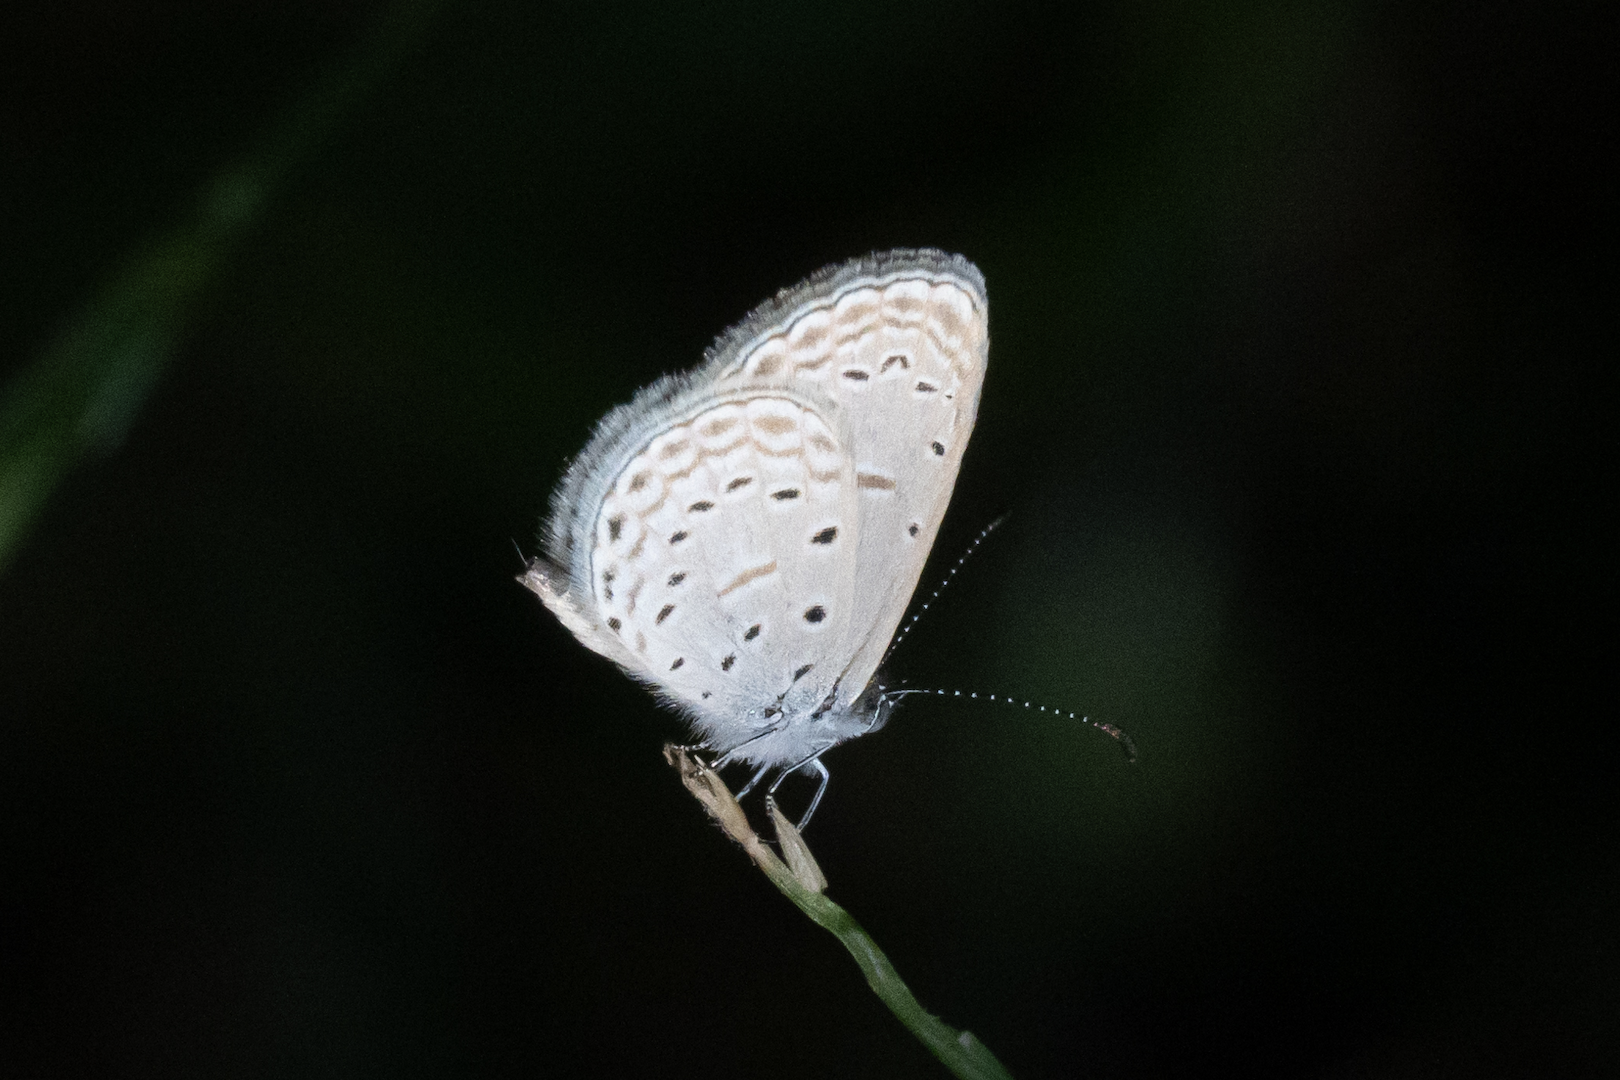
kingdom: Animalia
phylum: Arthropoda
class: Insecta
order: Lepidoptera
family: Lycaenidae
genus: Zizula
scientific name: Zizula hylax
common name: Gaika blue
